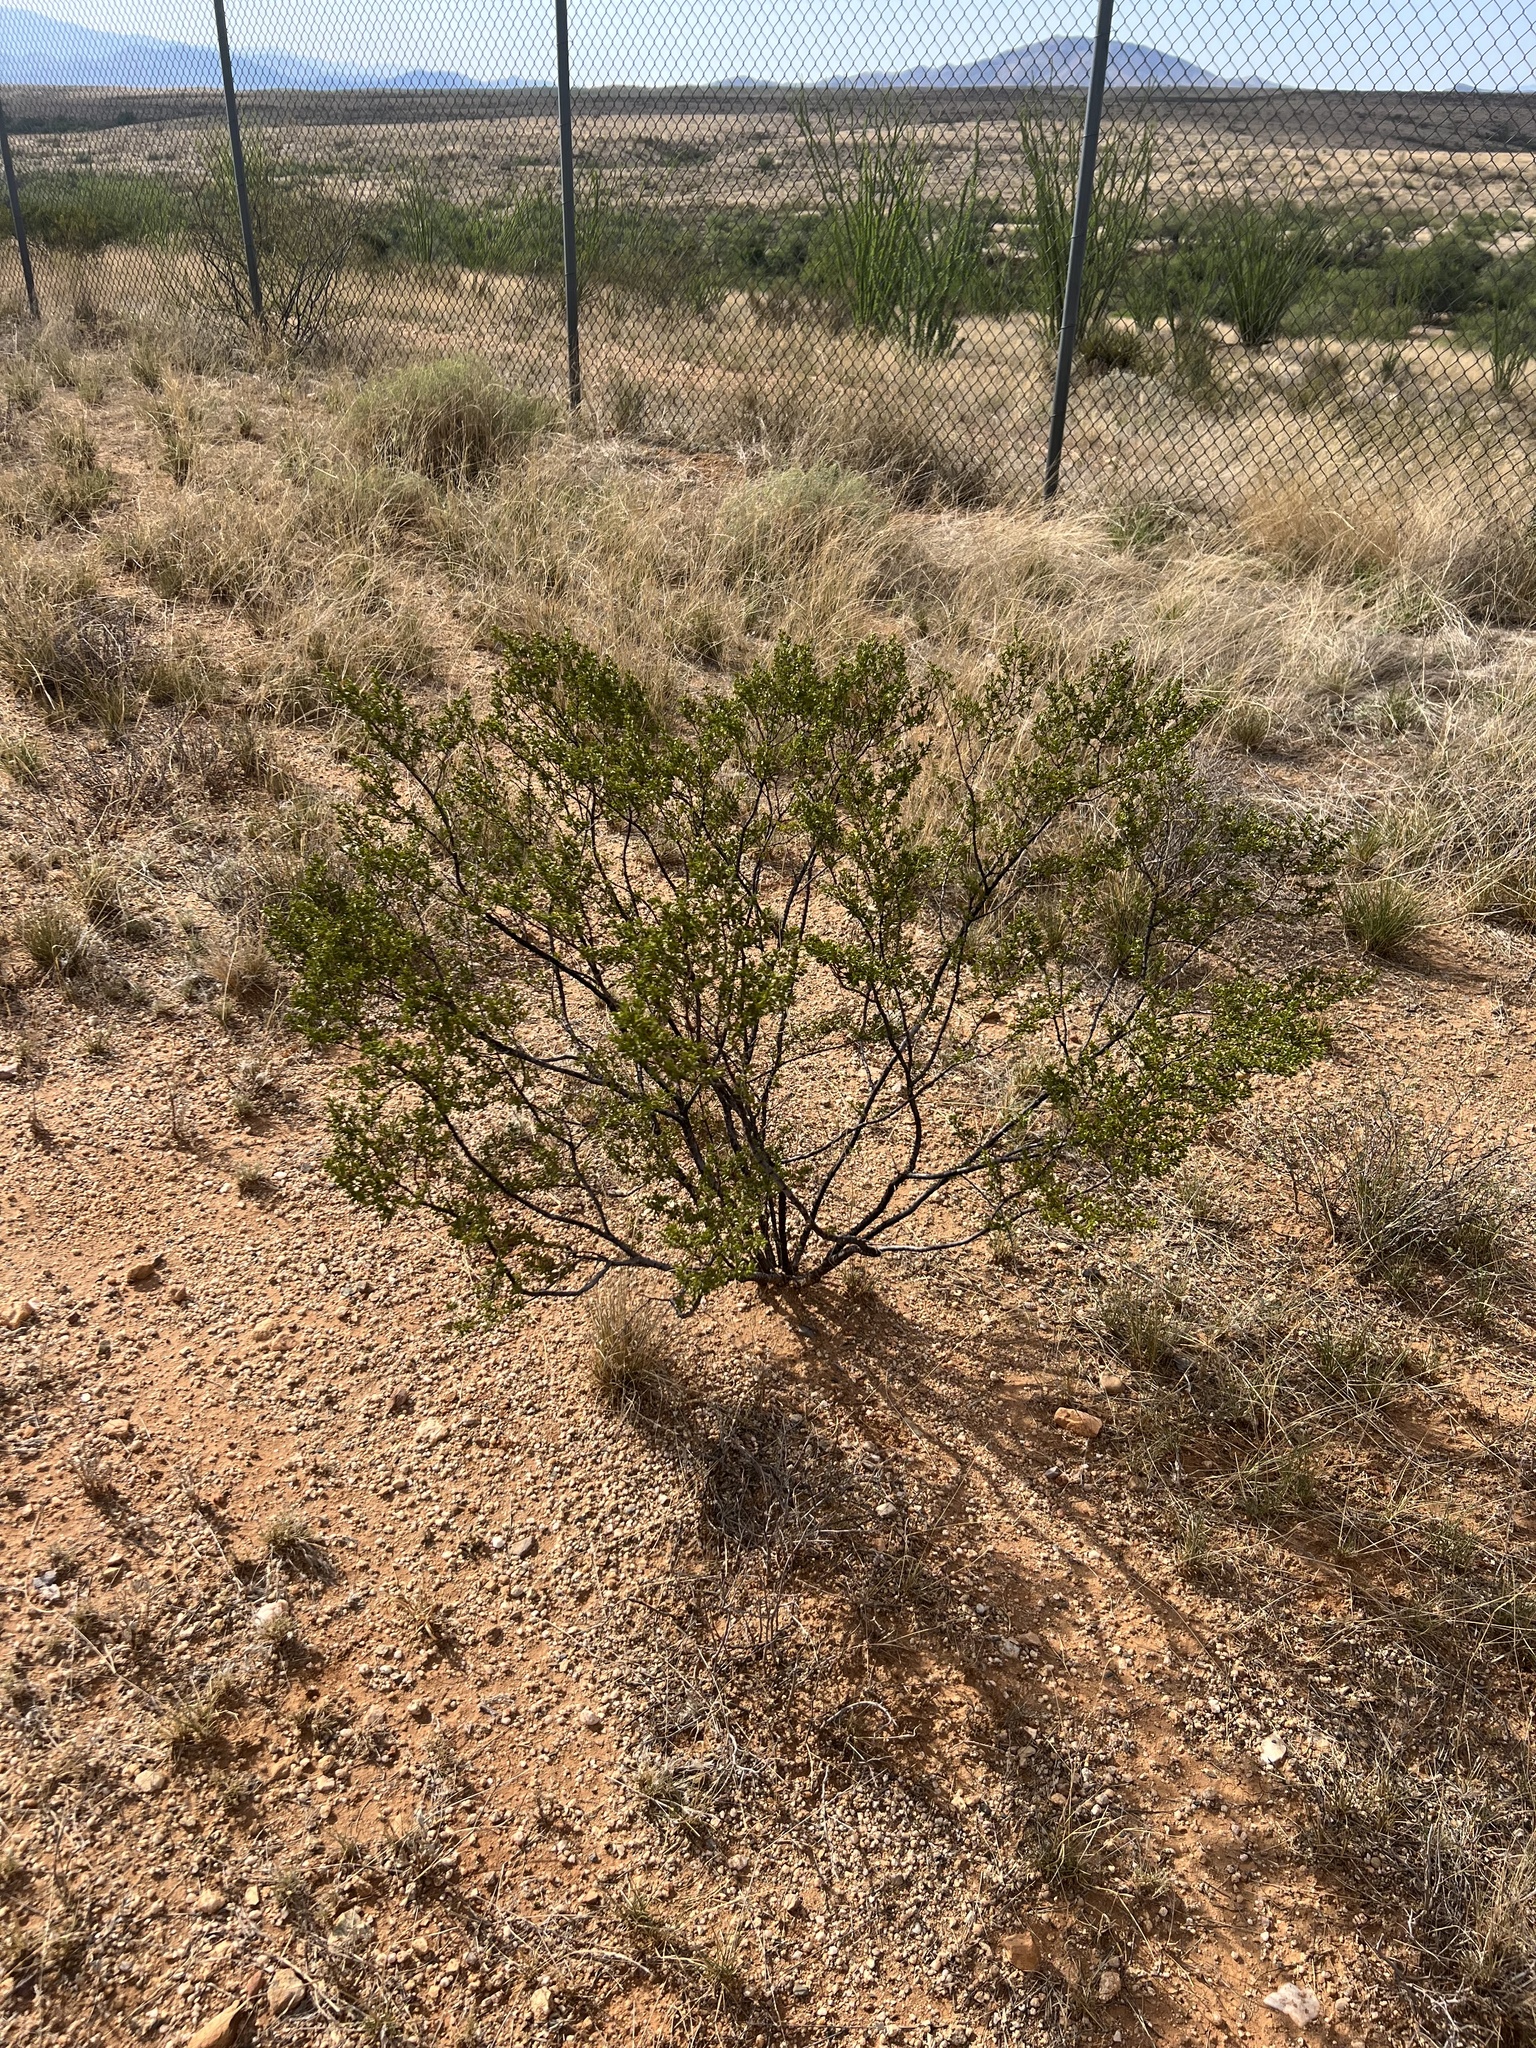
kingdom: Plantae
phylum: Tracheophyta
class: Magnoliopsida
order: Zygophyllales
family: Zygophyllaceae
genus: Larrea
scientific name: Larrea tridentata
